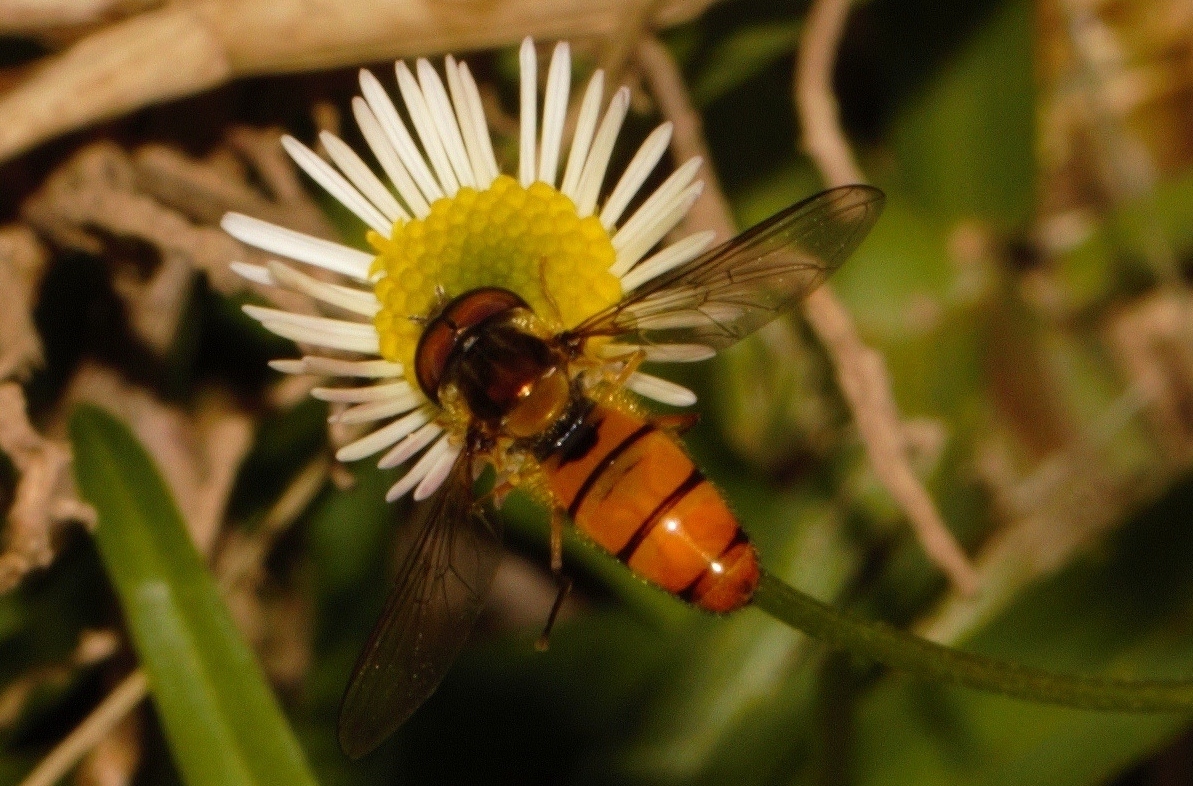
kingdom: Animalia
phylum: Arthropoda
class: Insecta
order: Diptera
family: Syrphidae
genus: Episyrphus
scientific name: Episyrphus trisectus
